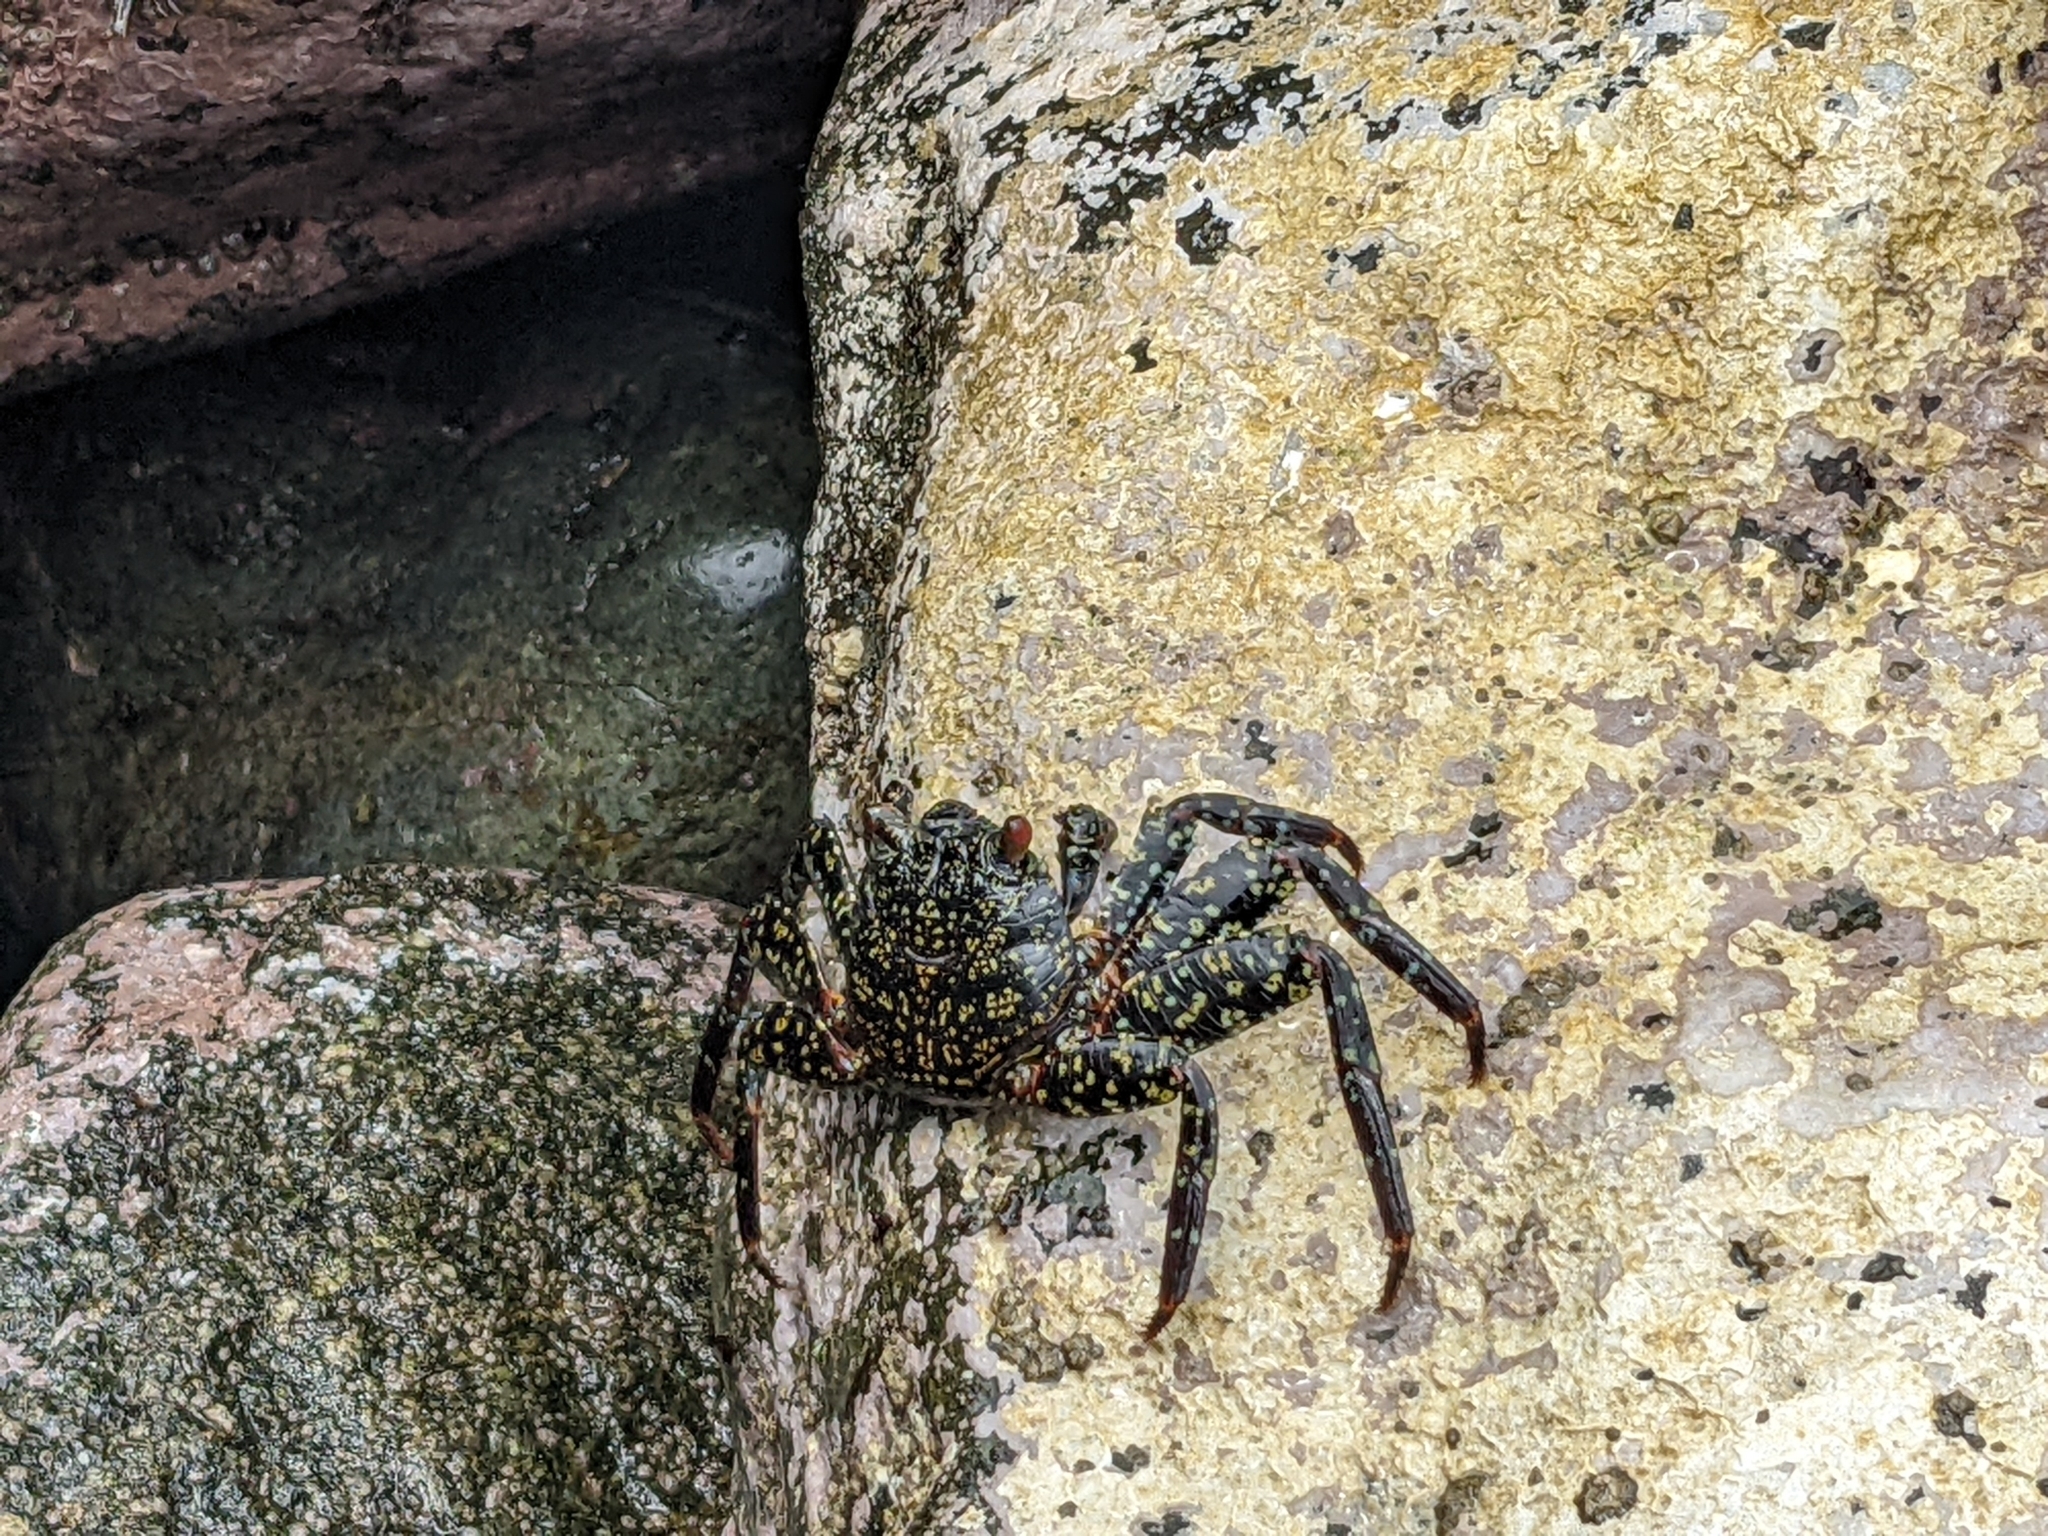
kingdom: Animalia
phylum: Arthropoda
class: Malacostraca
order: Decapoda
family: Grapsidae
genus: Grapsus
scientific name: Grapsus grapsus
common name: Sally lightfoot
